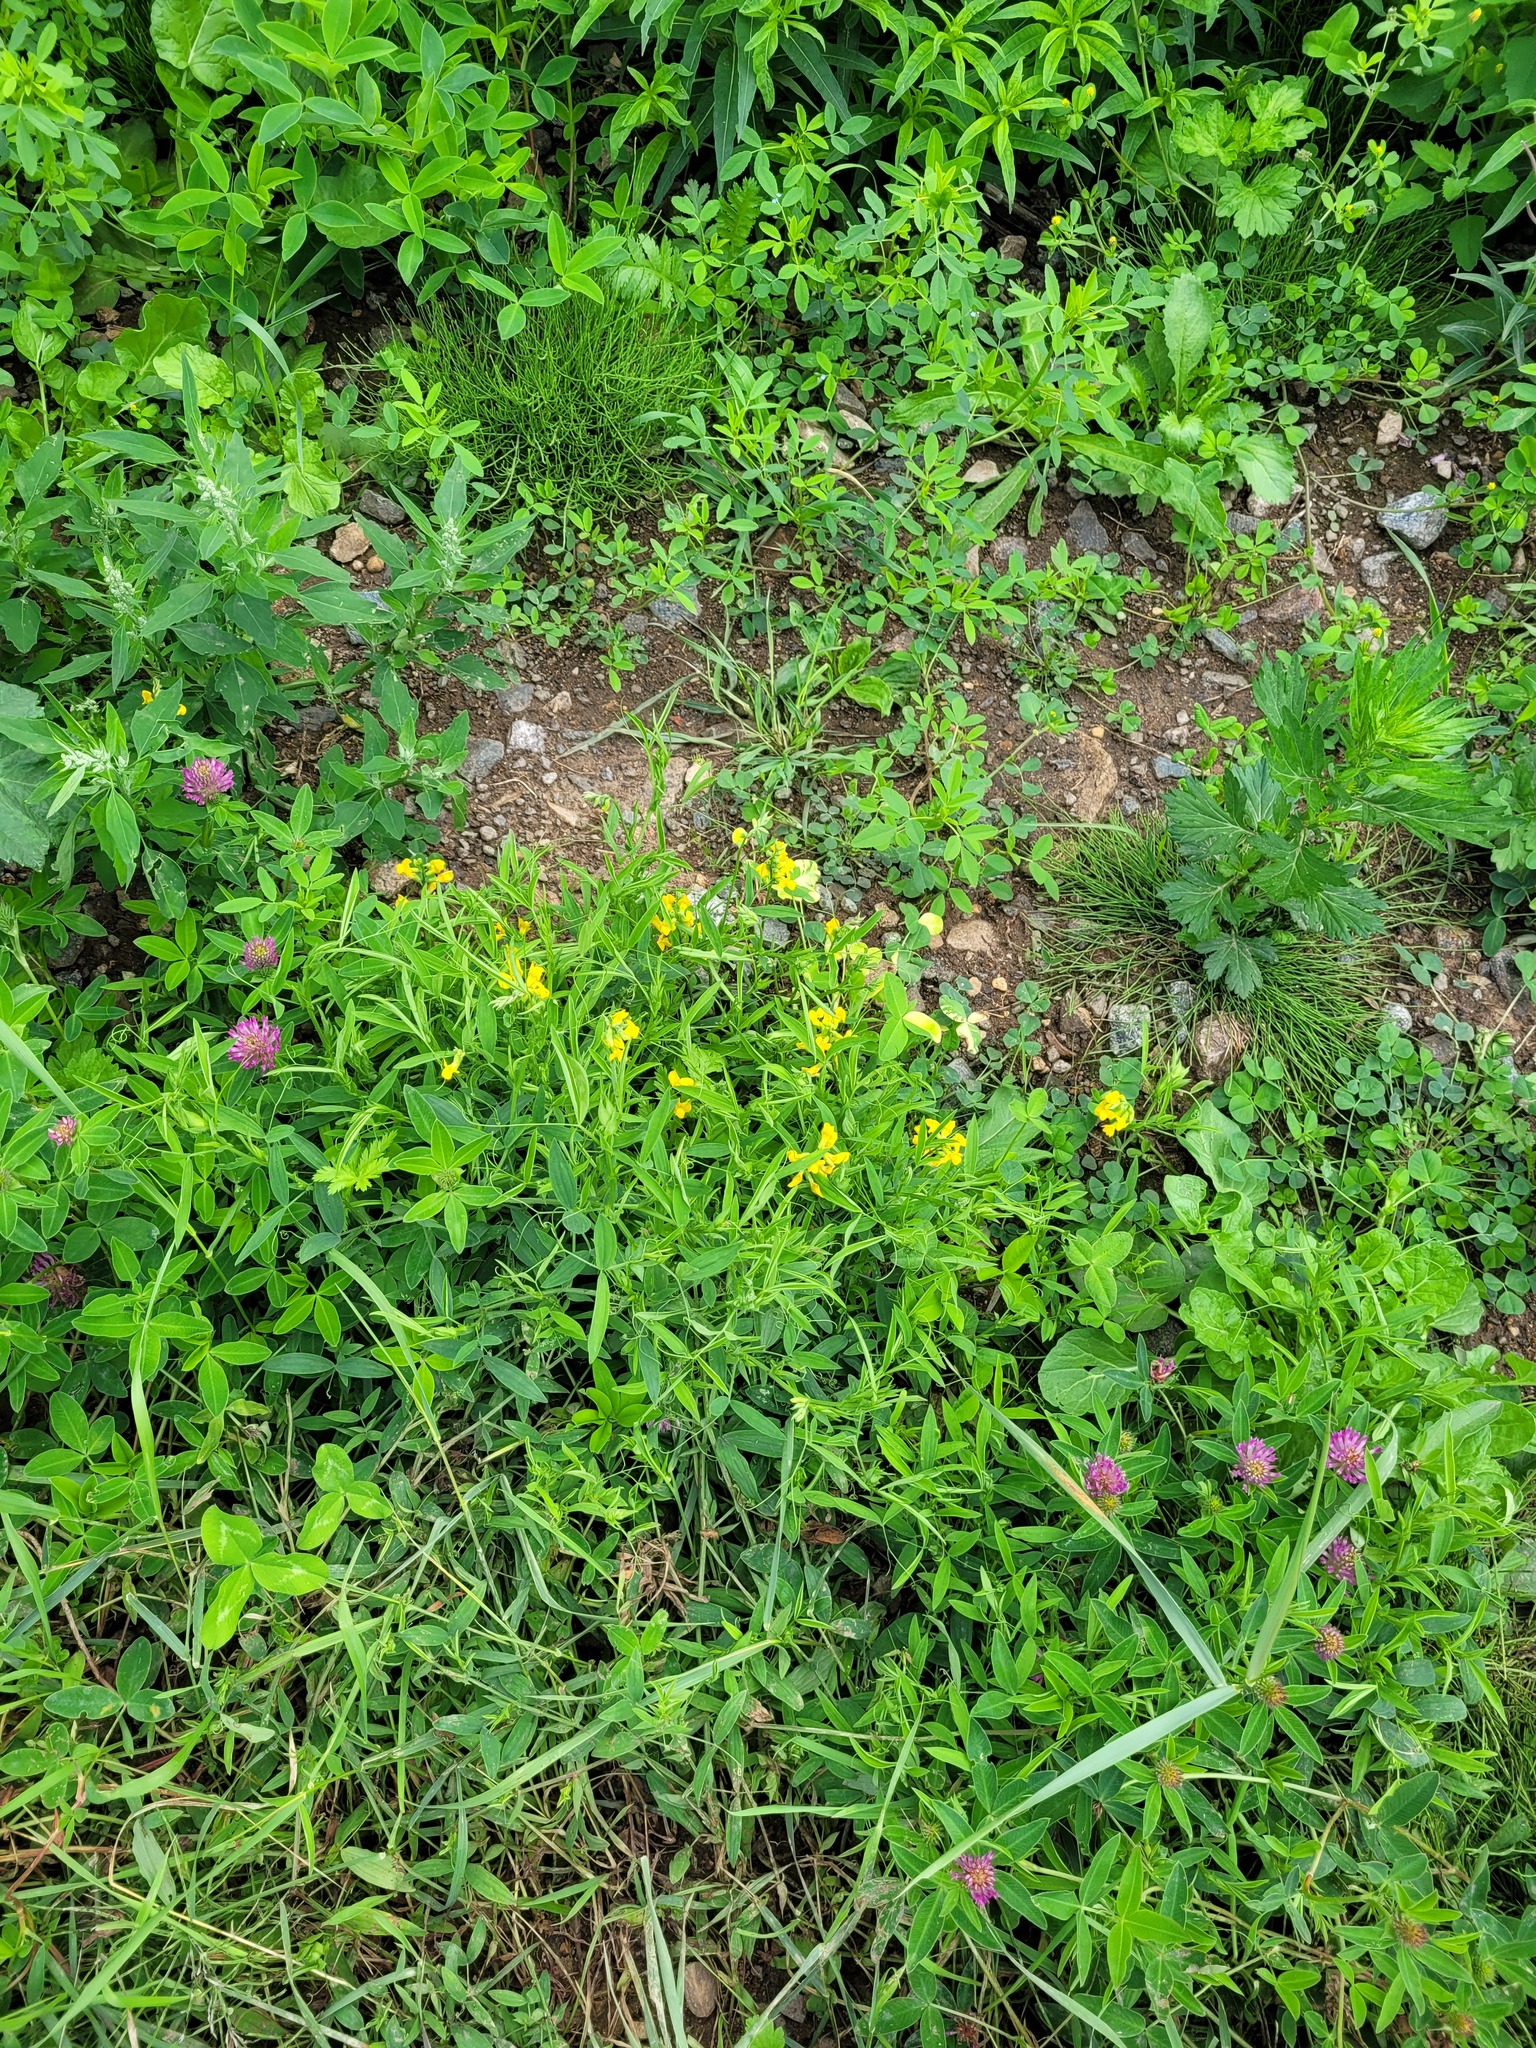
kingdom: Plantae
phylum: Tracheophyta
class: Magnoliopsida
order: Fabales
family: Fabaceae
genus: Lathyrus
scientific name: Lathyrus pratensis
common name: Meadow vetchling
